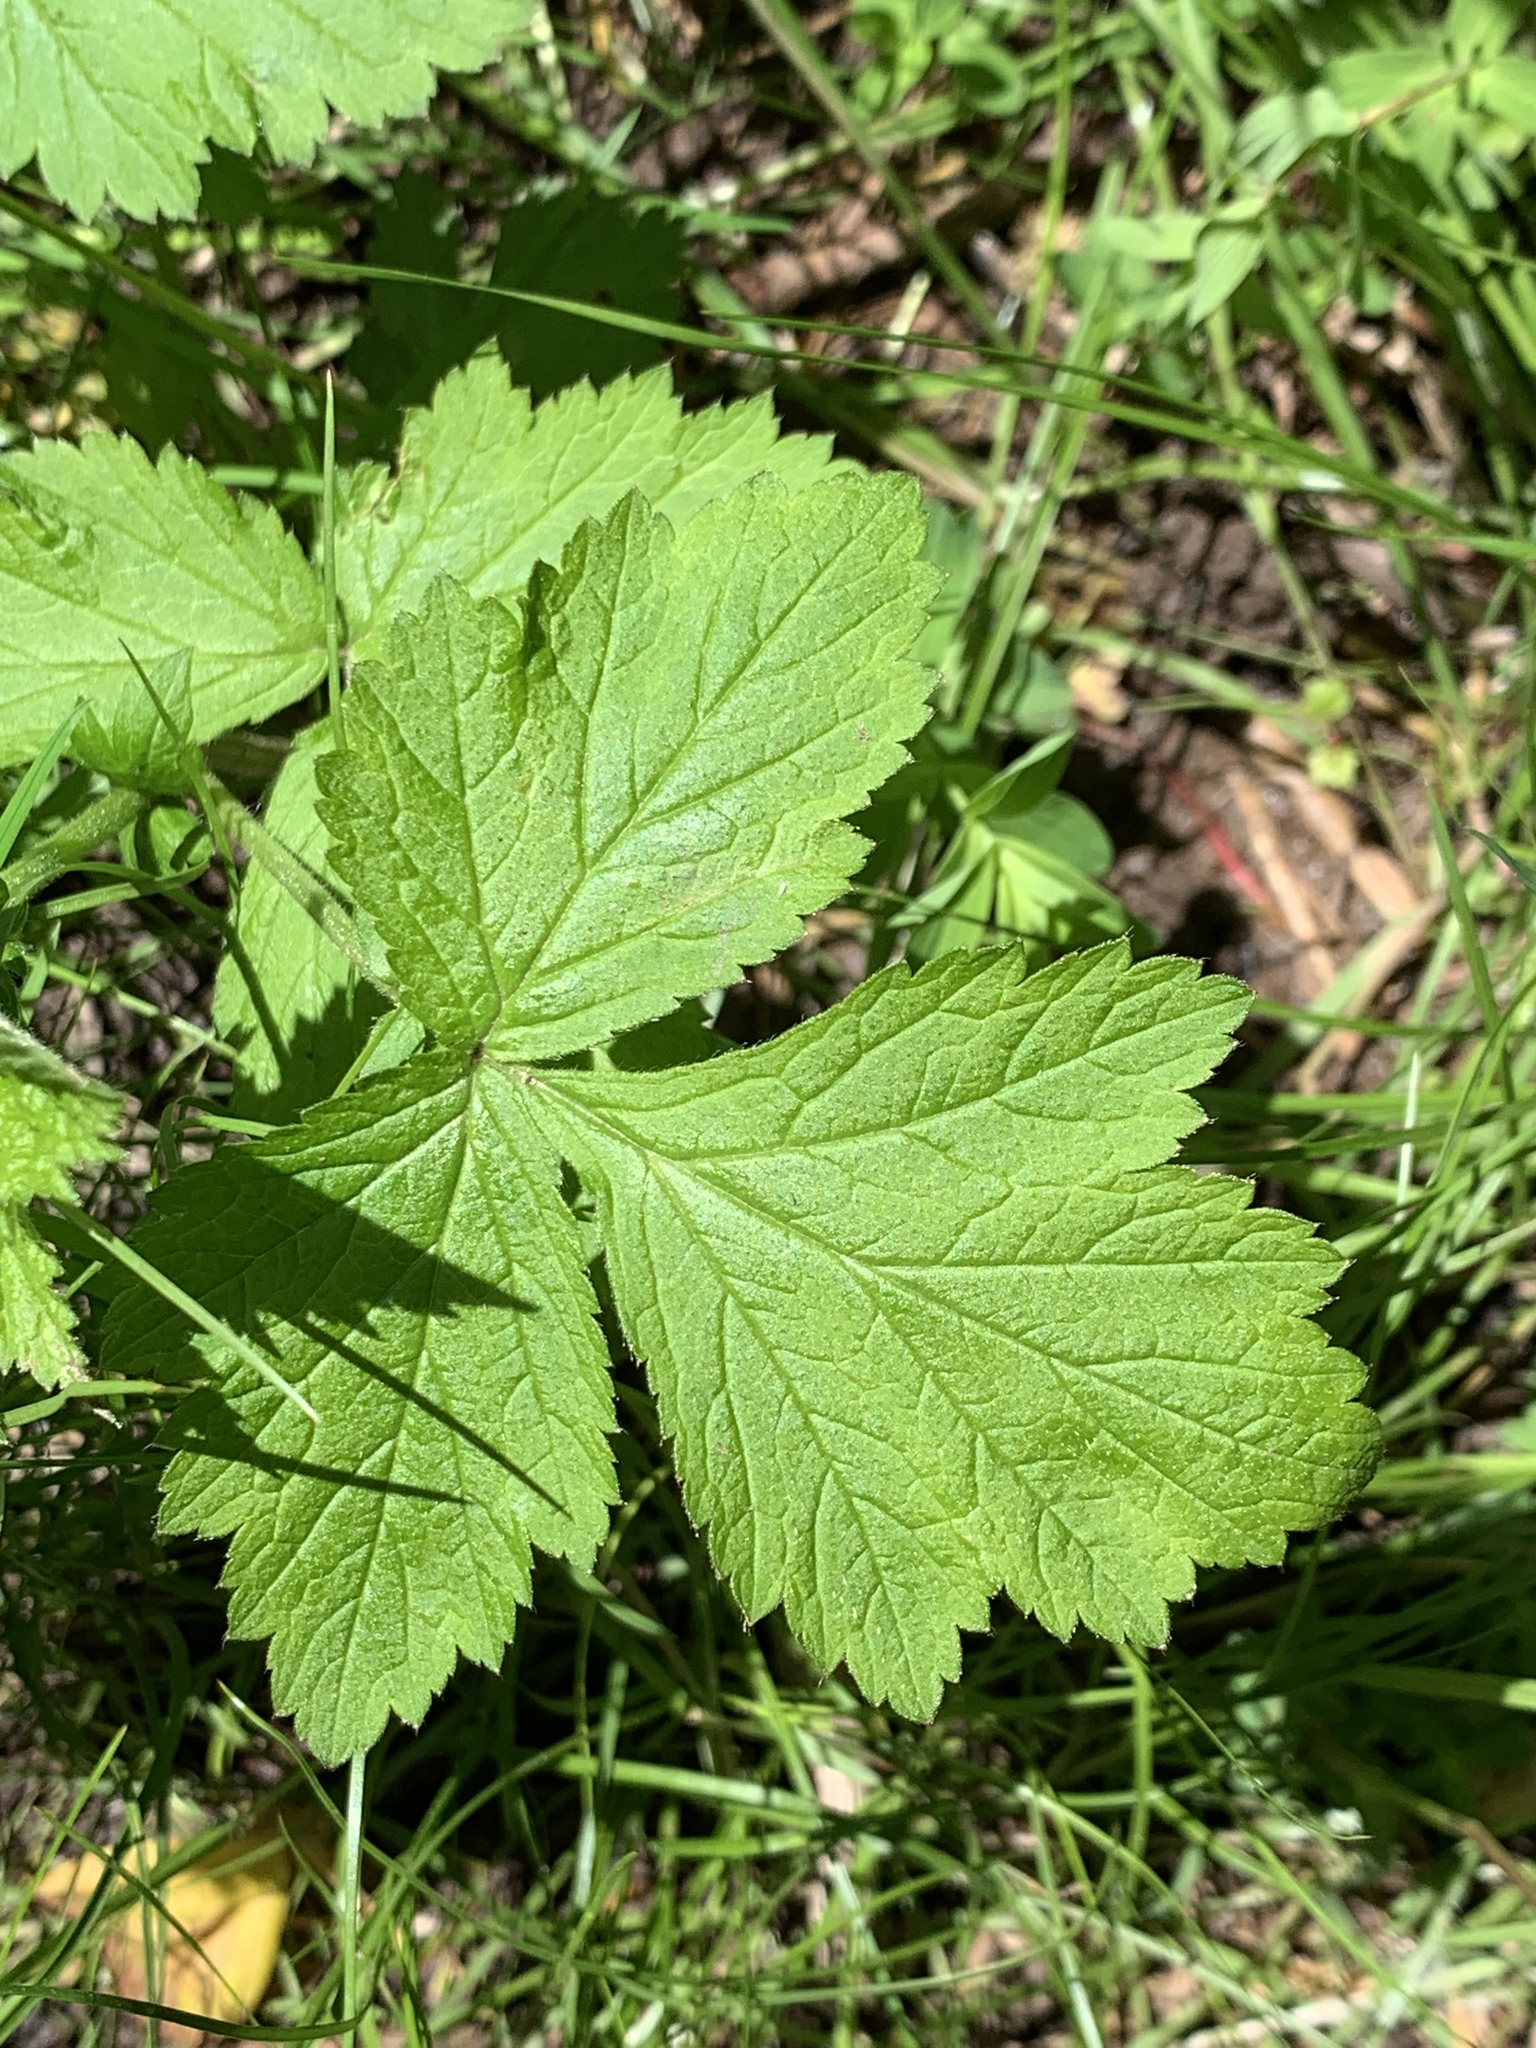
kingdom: Plantae
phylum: Tracheophyta
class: Magnoliopsida
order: Rosales
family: Rosaceae
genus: Geum
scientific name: Geum canadense
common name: White avens
